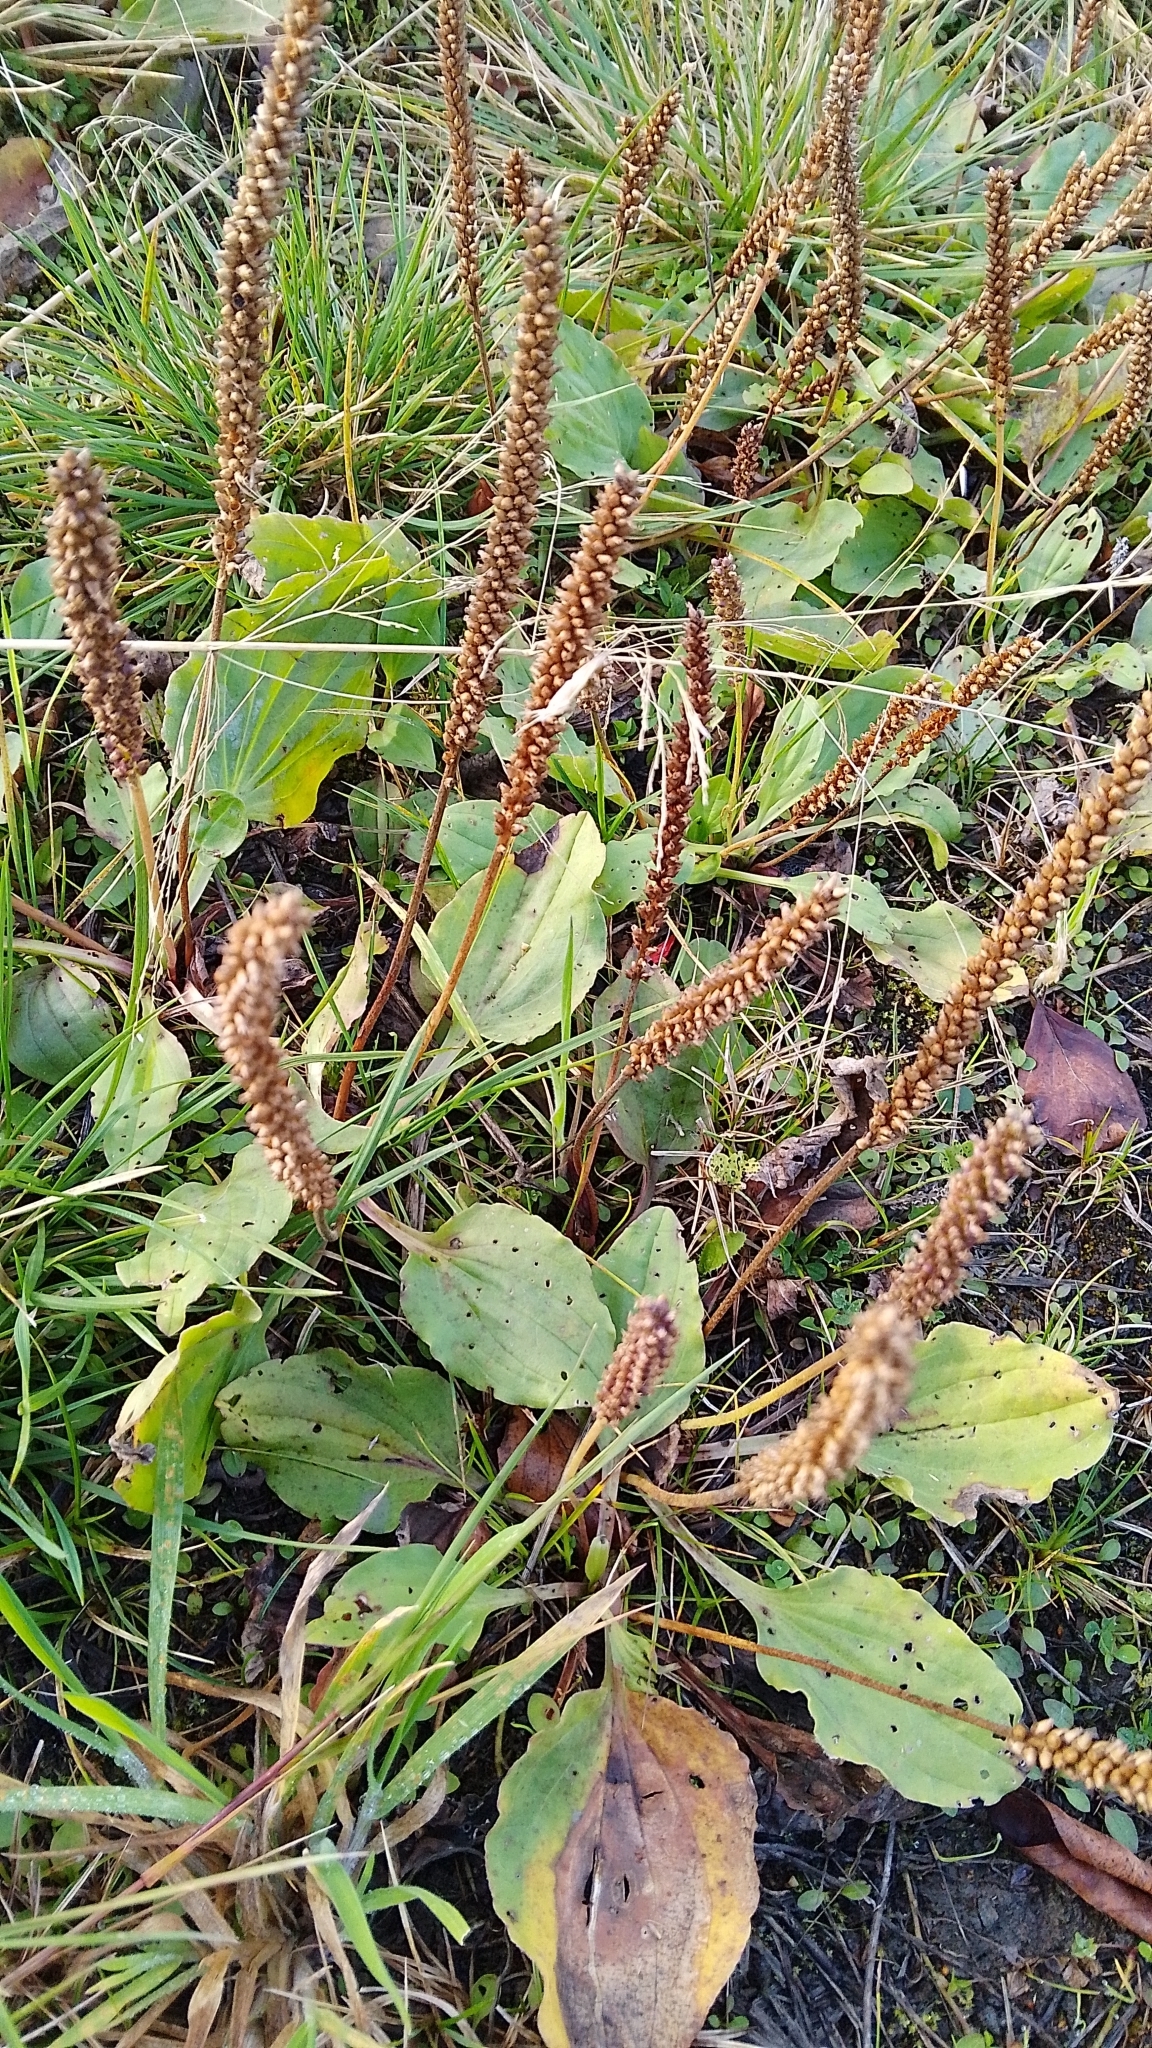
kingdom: Plantae
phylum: Tracheophyta
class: Magnoliopsida
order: Lamiales
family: Plantaginaceae
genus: Plantago
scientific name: Plantago major
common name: Common plantain
